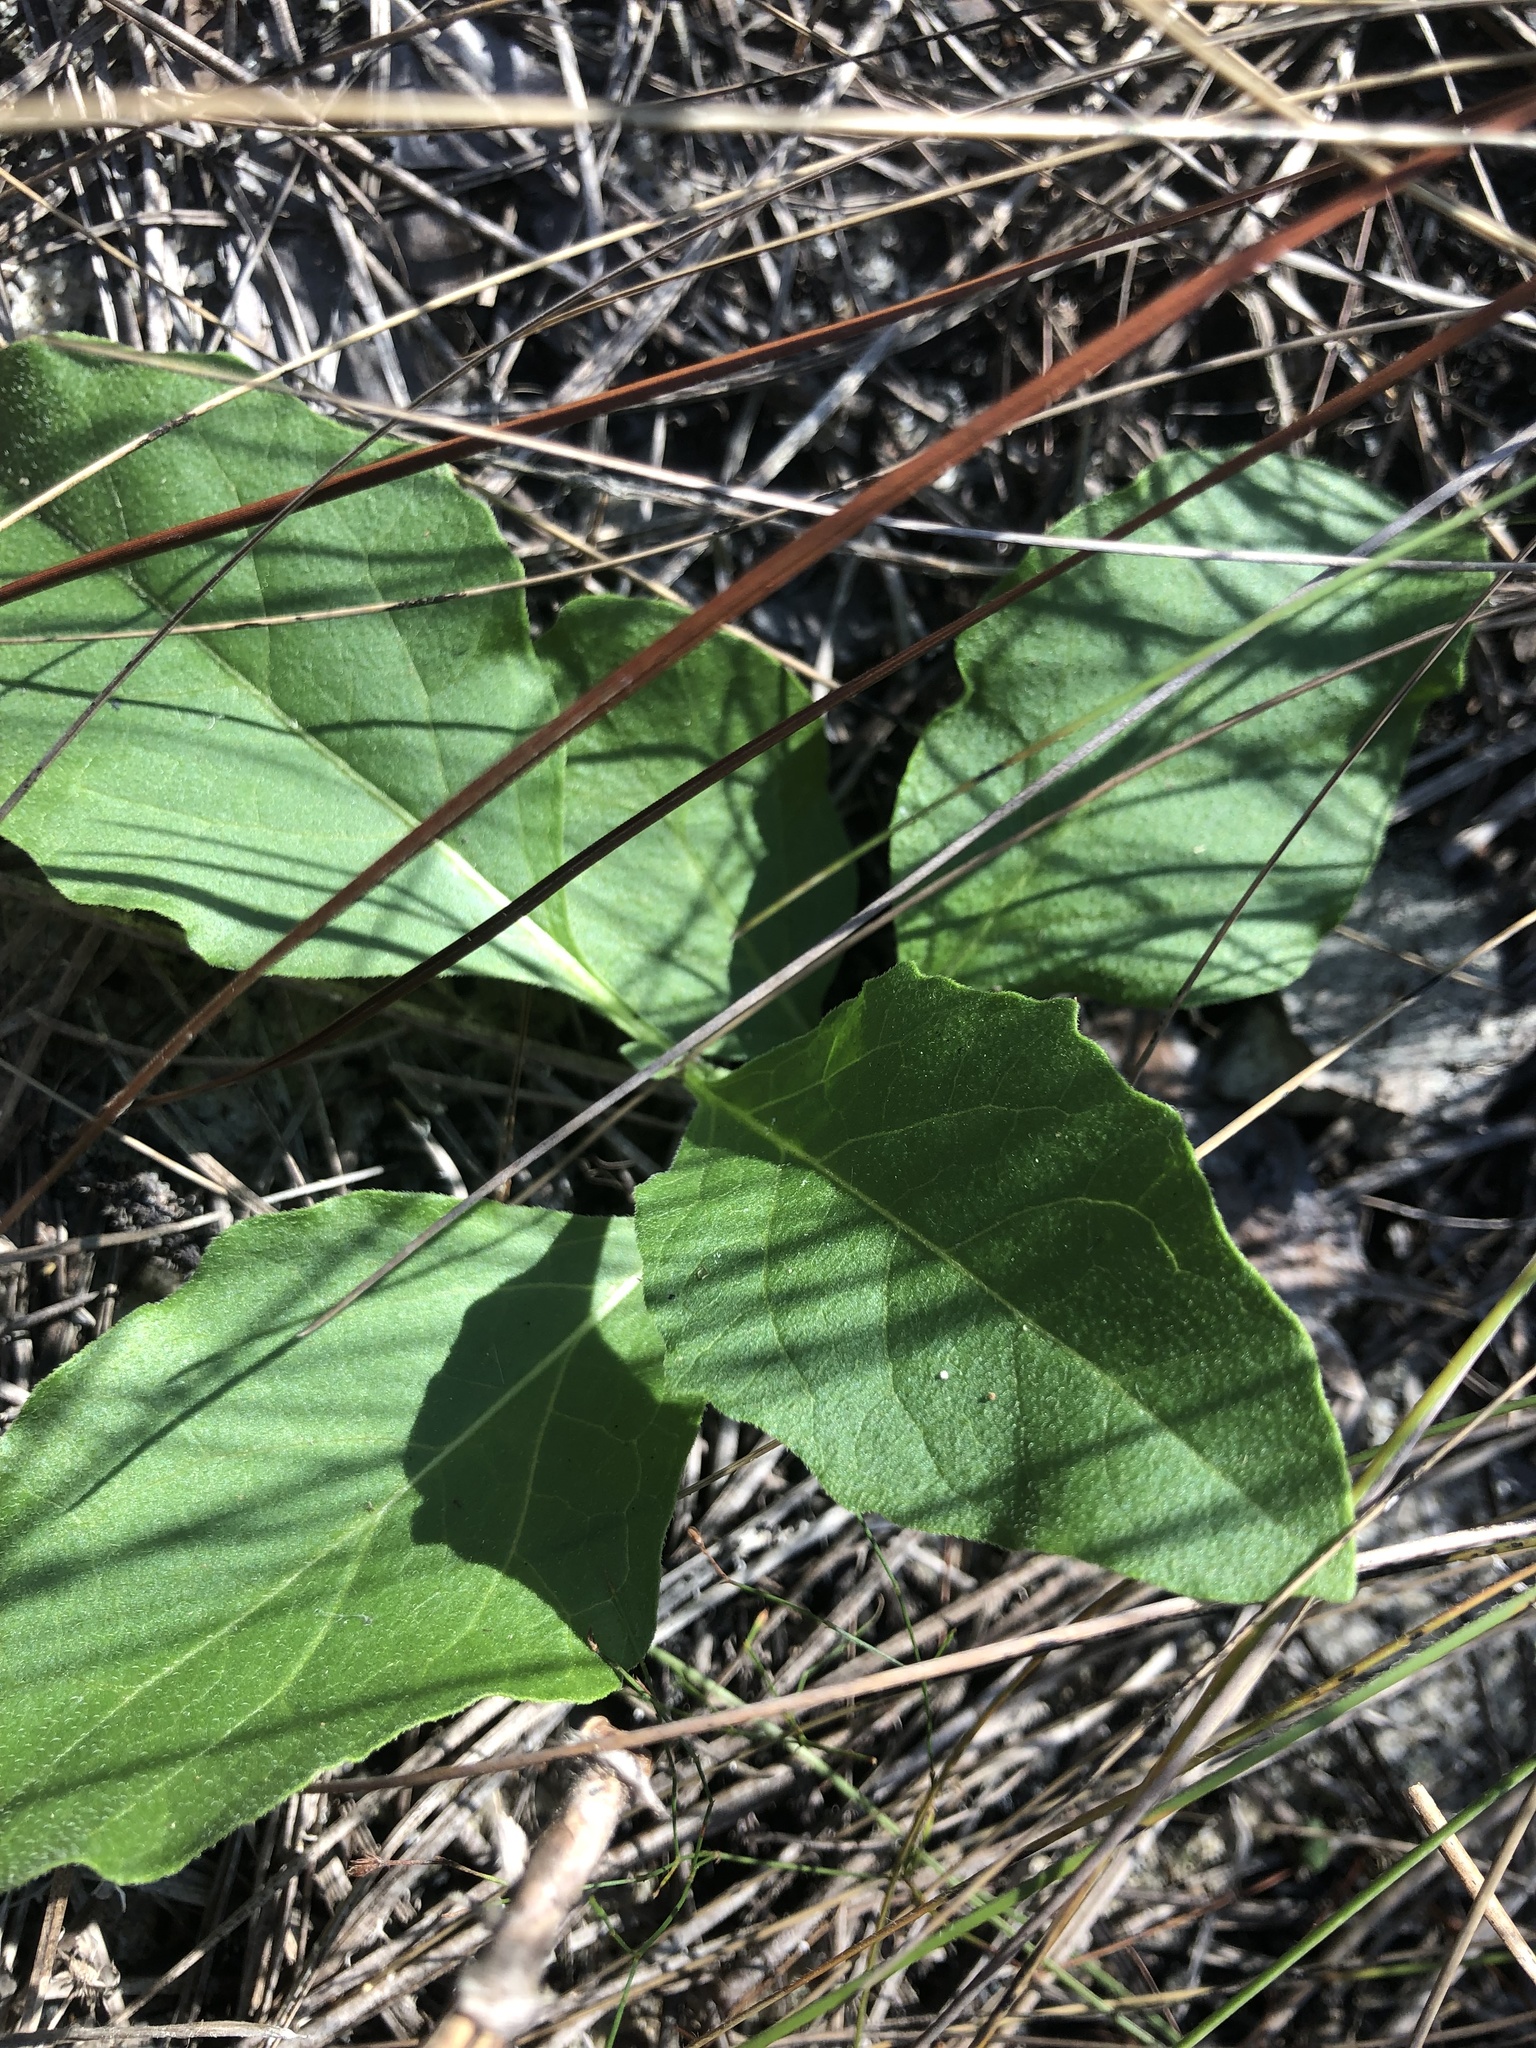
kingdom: Plantae
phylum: Tracheophyta
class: Magnoliopsida
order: Solanales
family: Solanaceae
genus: Physalis
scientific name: Physalis lanceolata
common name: Lance-leaved ground-cherry
